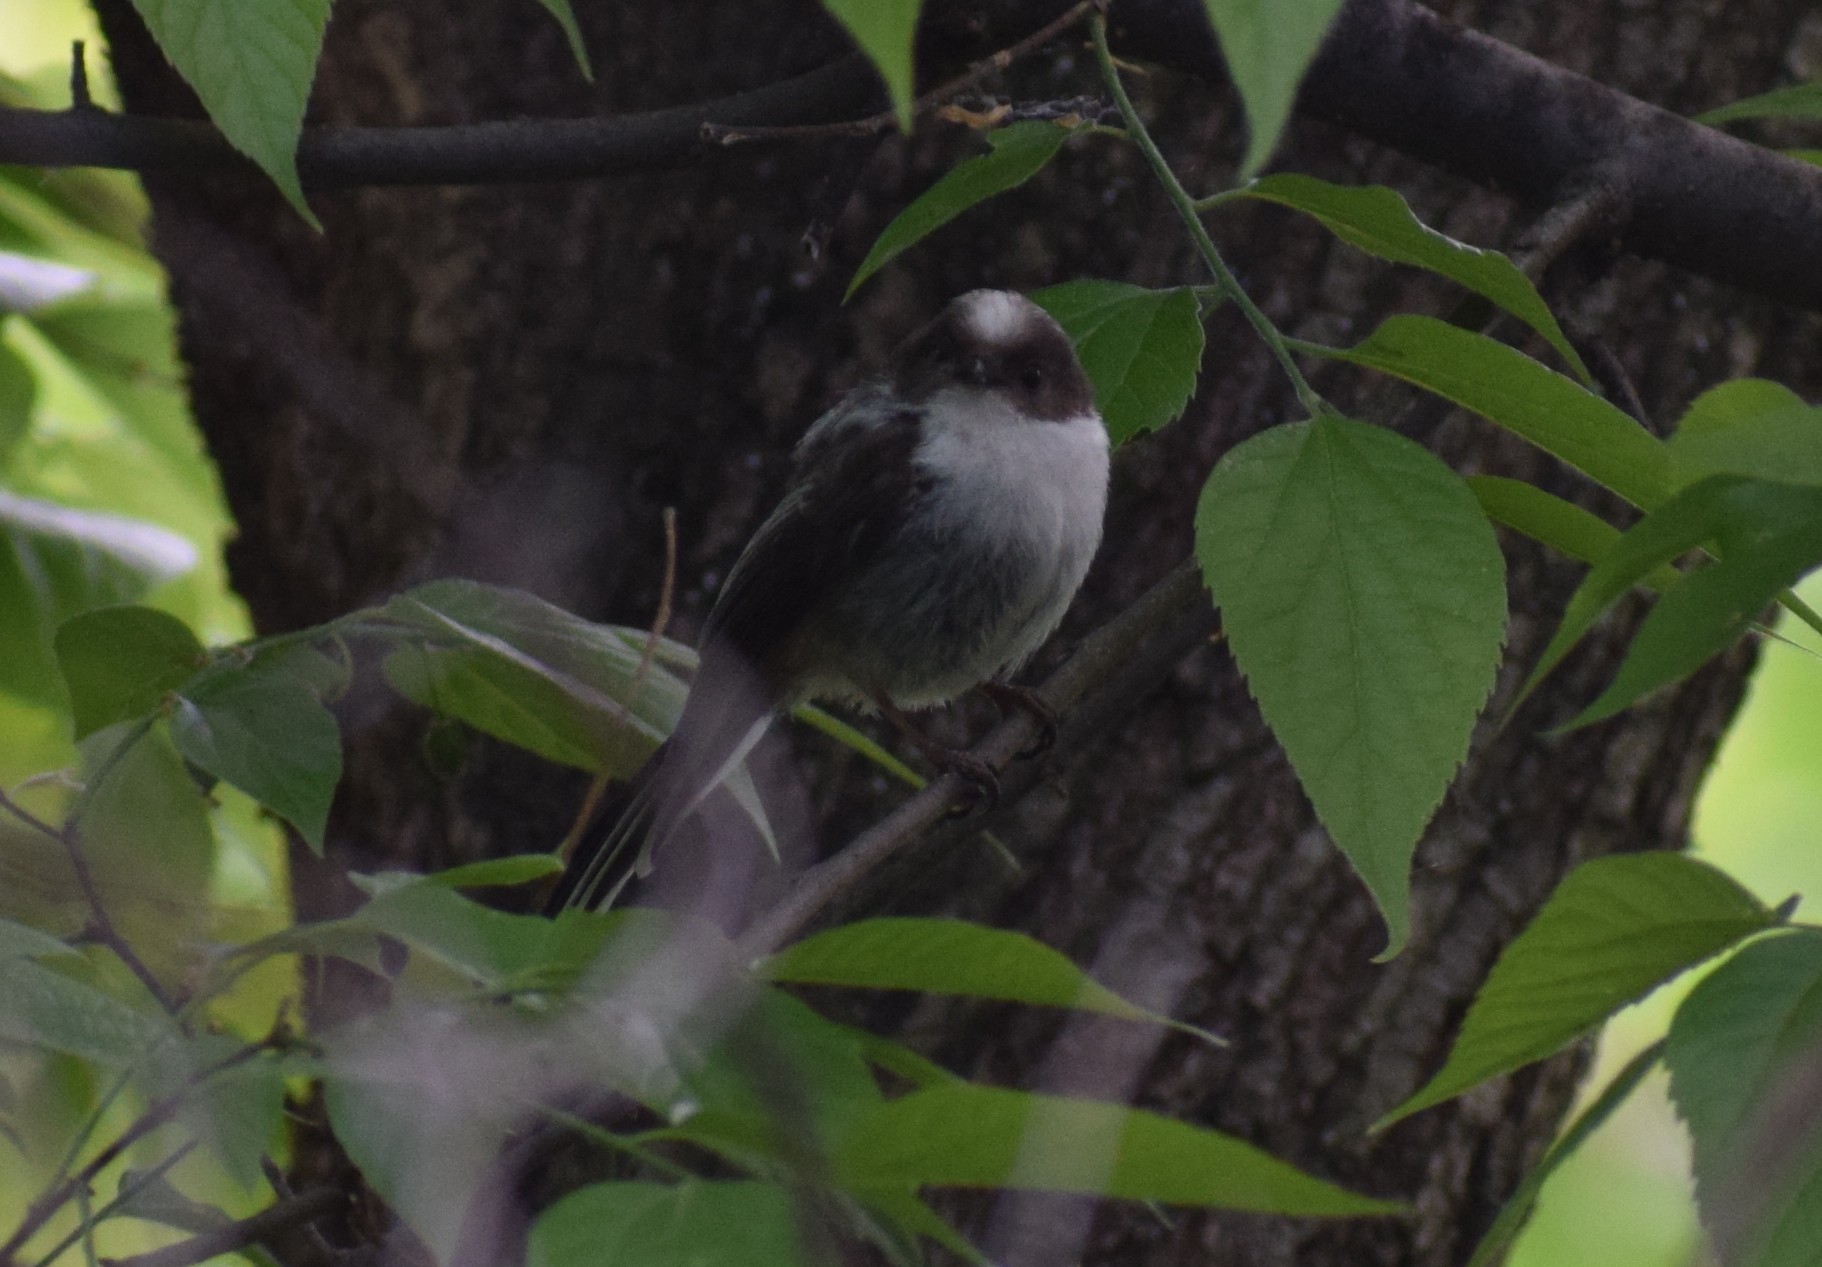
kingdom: Animalia
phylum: Chordata
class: Aves
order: Passeriformes
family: Aegithalidae
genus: Aegithalos
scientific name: Aegithalos caudatus
